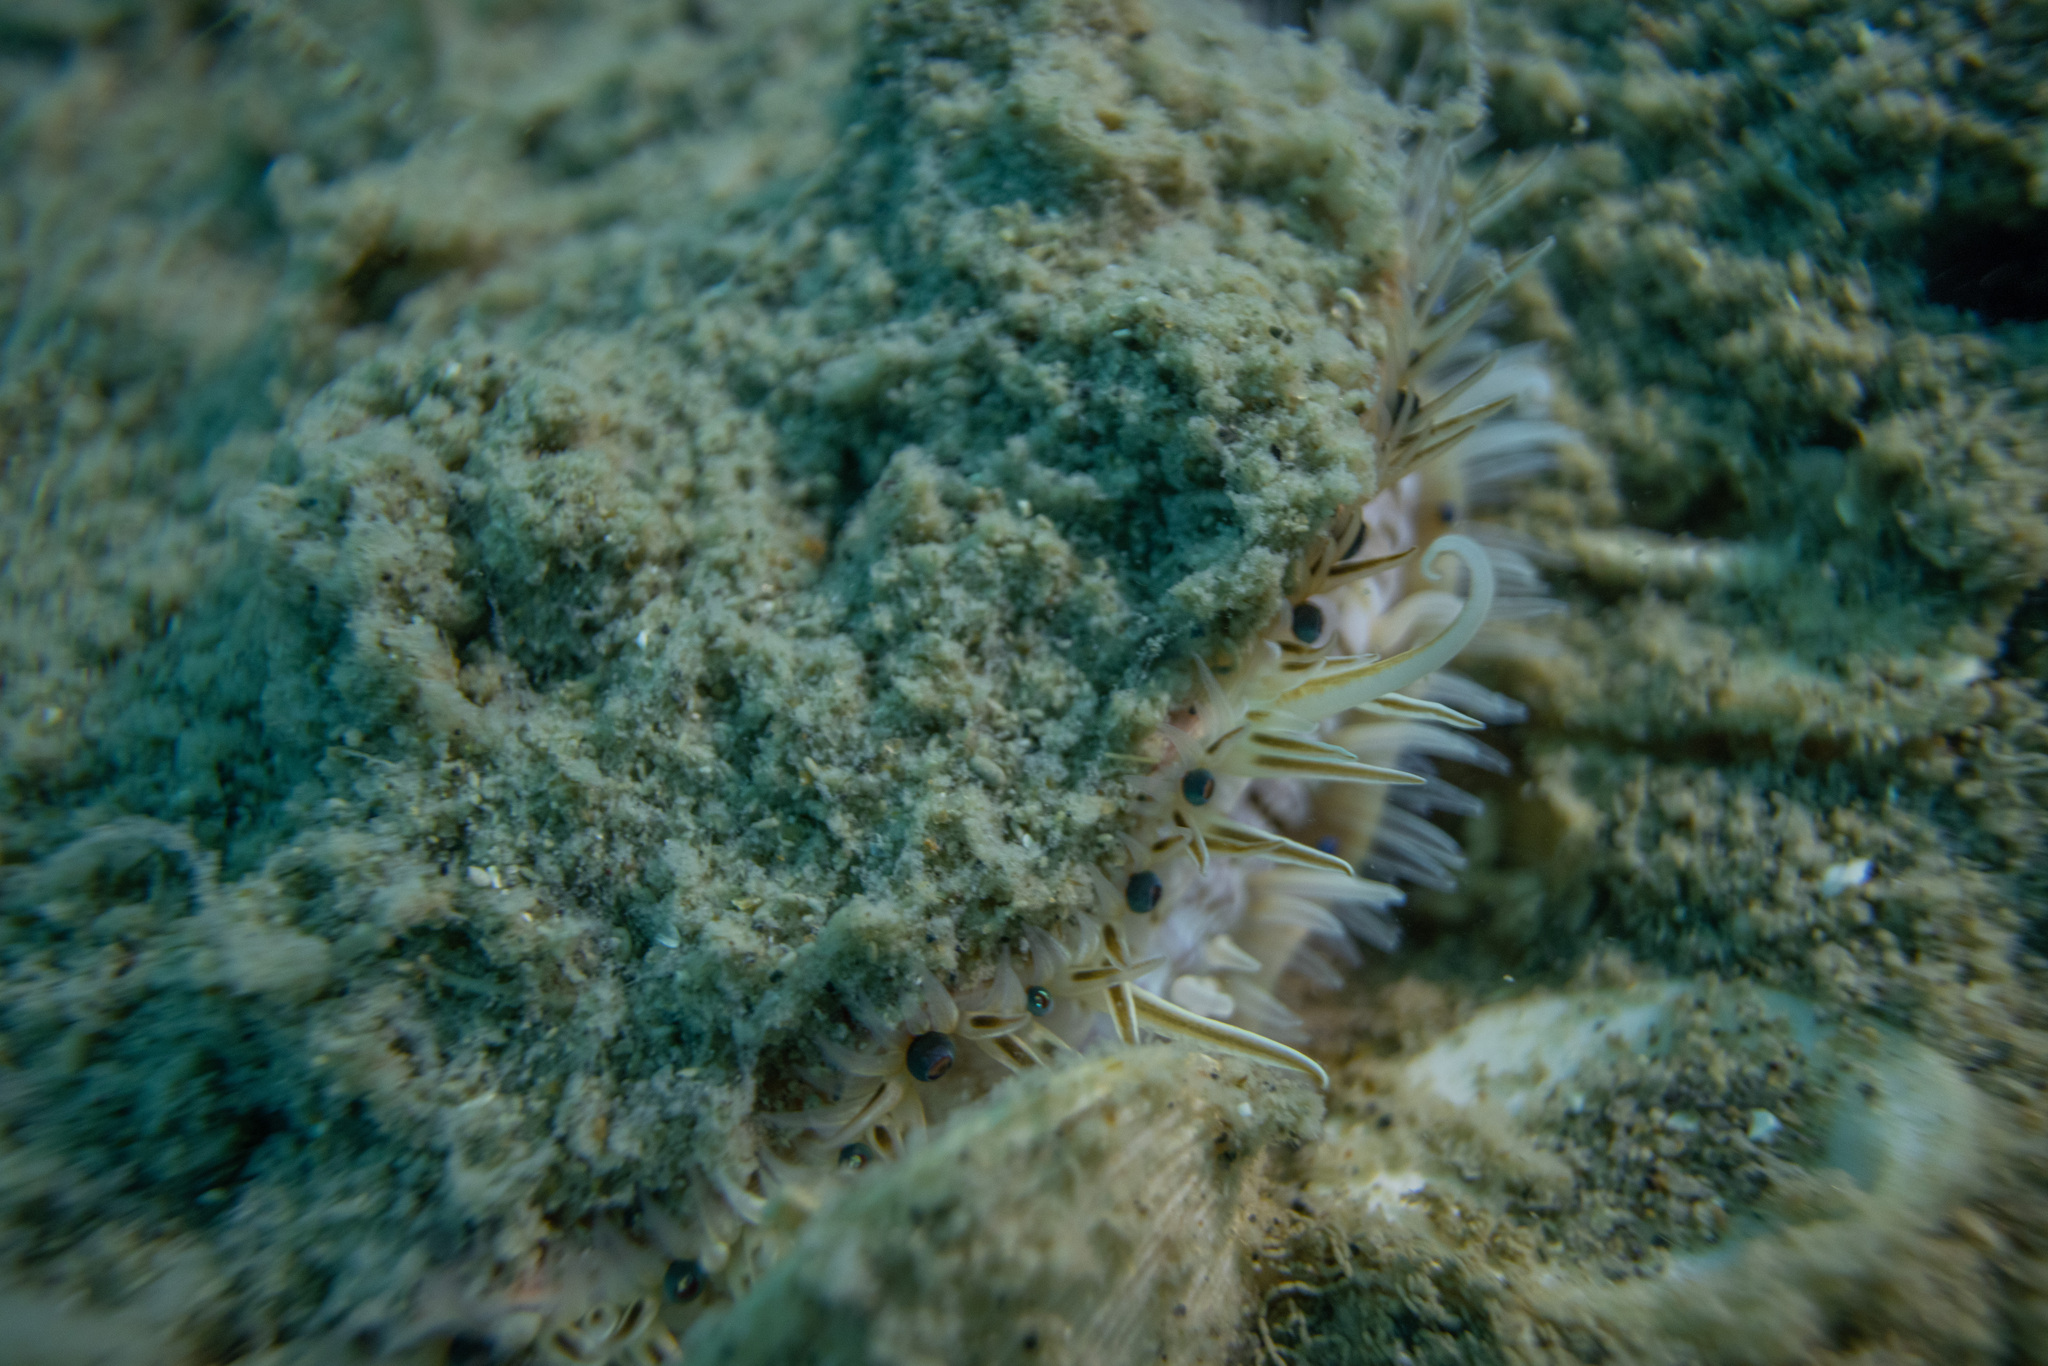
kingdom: Animalia
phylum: Mollusca
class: Bivalvia
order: Pectinida
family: Pectinidae
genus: Pecten
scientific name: Pecten novaezelandiae
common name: New zealand scallop
